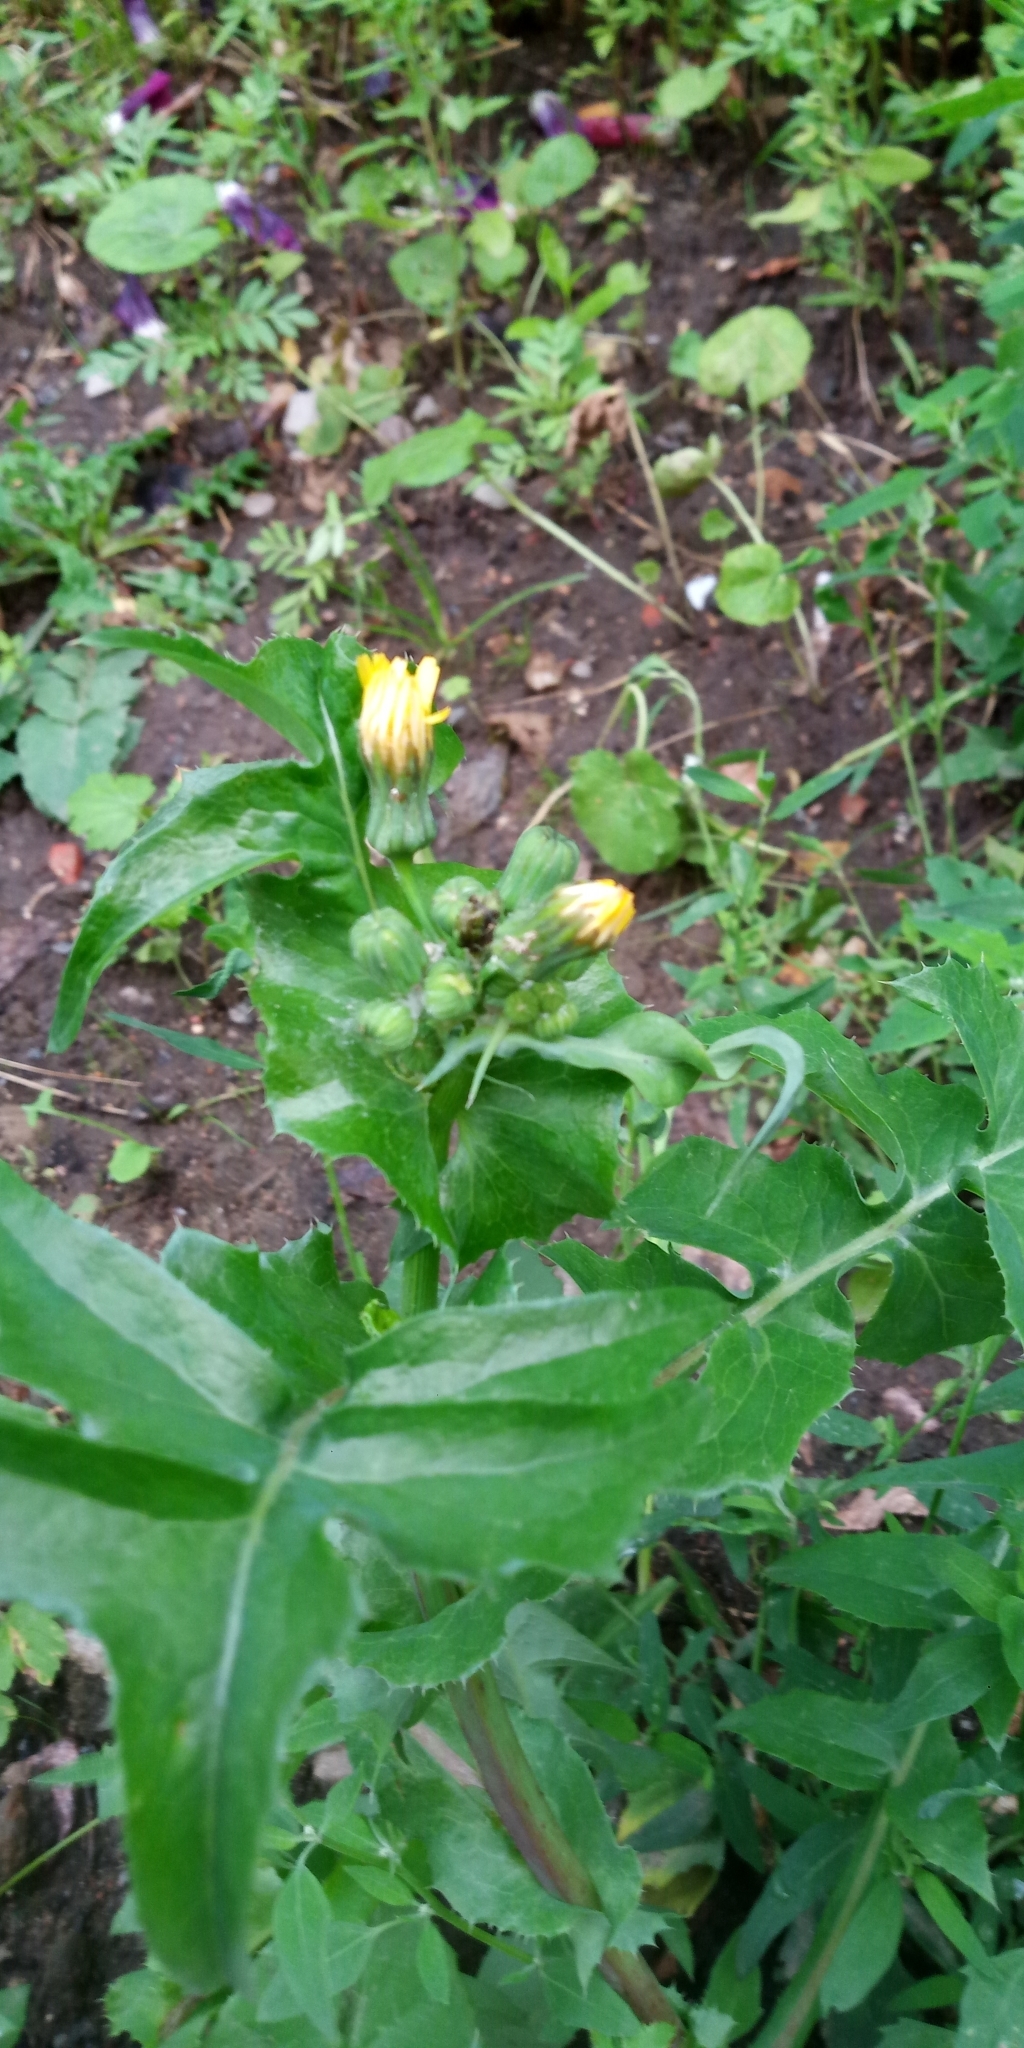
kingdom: Plantae
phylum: Tracheophyta
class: Magnoliopsida
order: Asterales
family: Asteraceae
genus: Sonchus
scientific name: Sonchus oleraceus
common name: Common sowthistle
